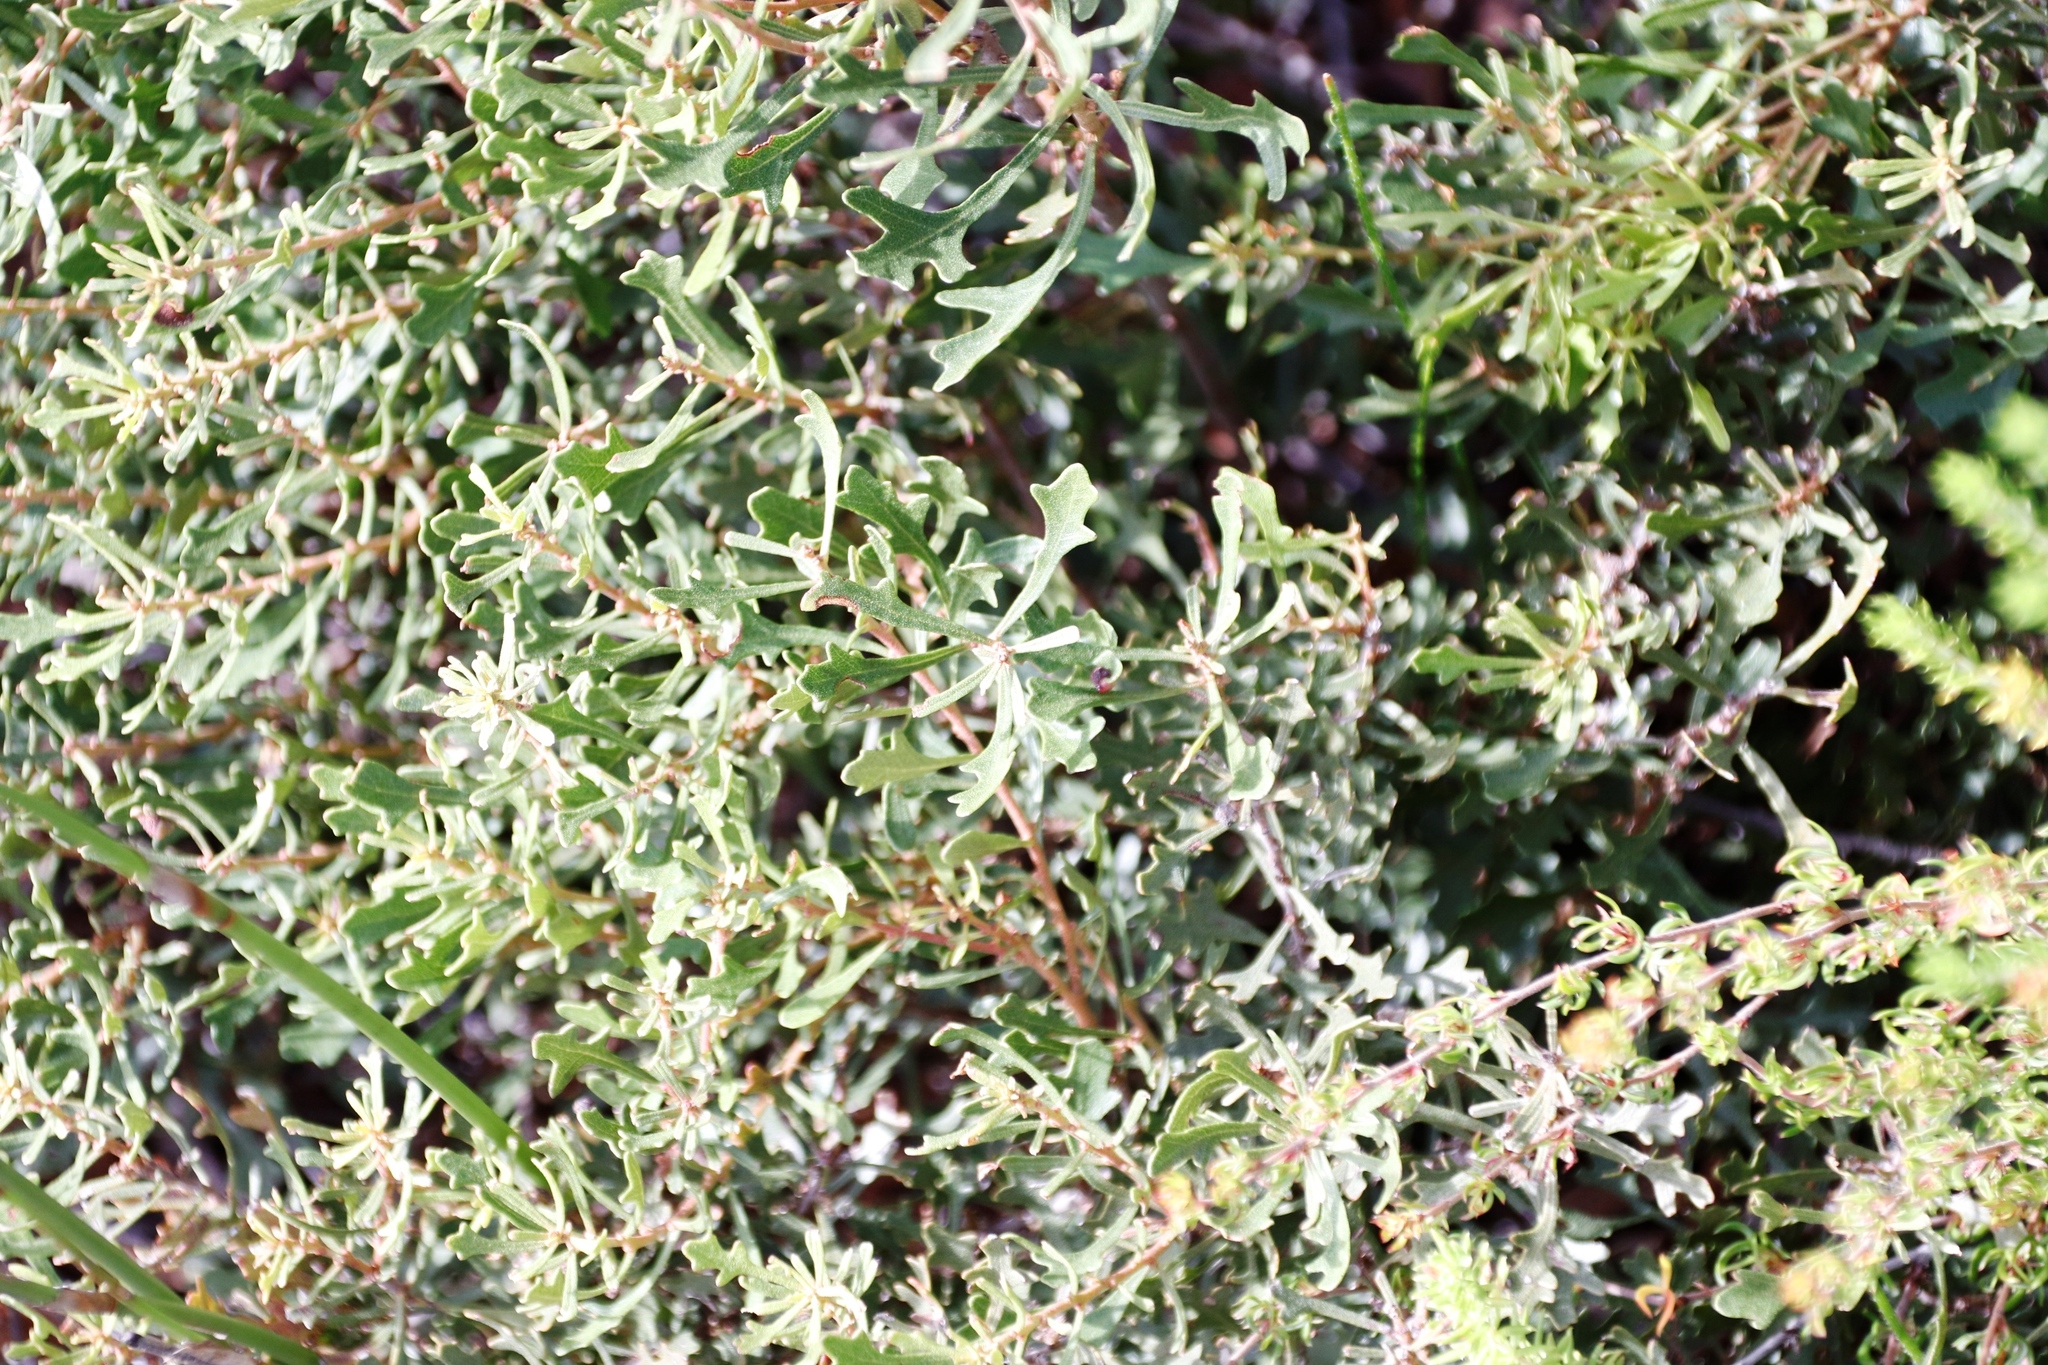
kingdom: Plantae
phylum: Tracheophyta
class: Magnoliopsida
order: Fagales
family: Myricaceae
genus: Morella
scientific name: Morella quercifolia
